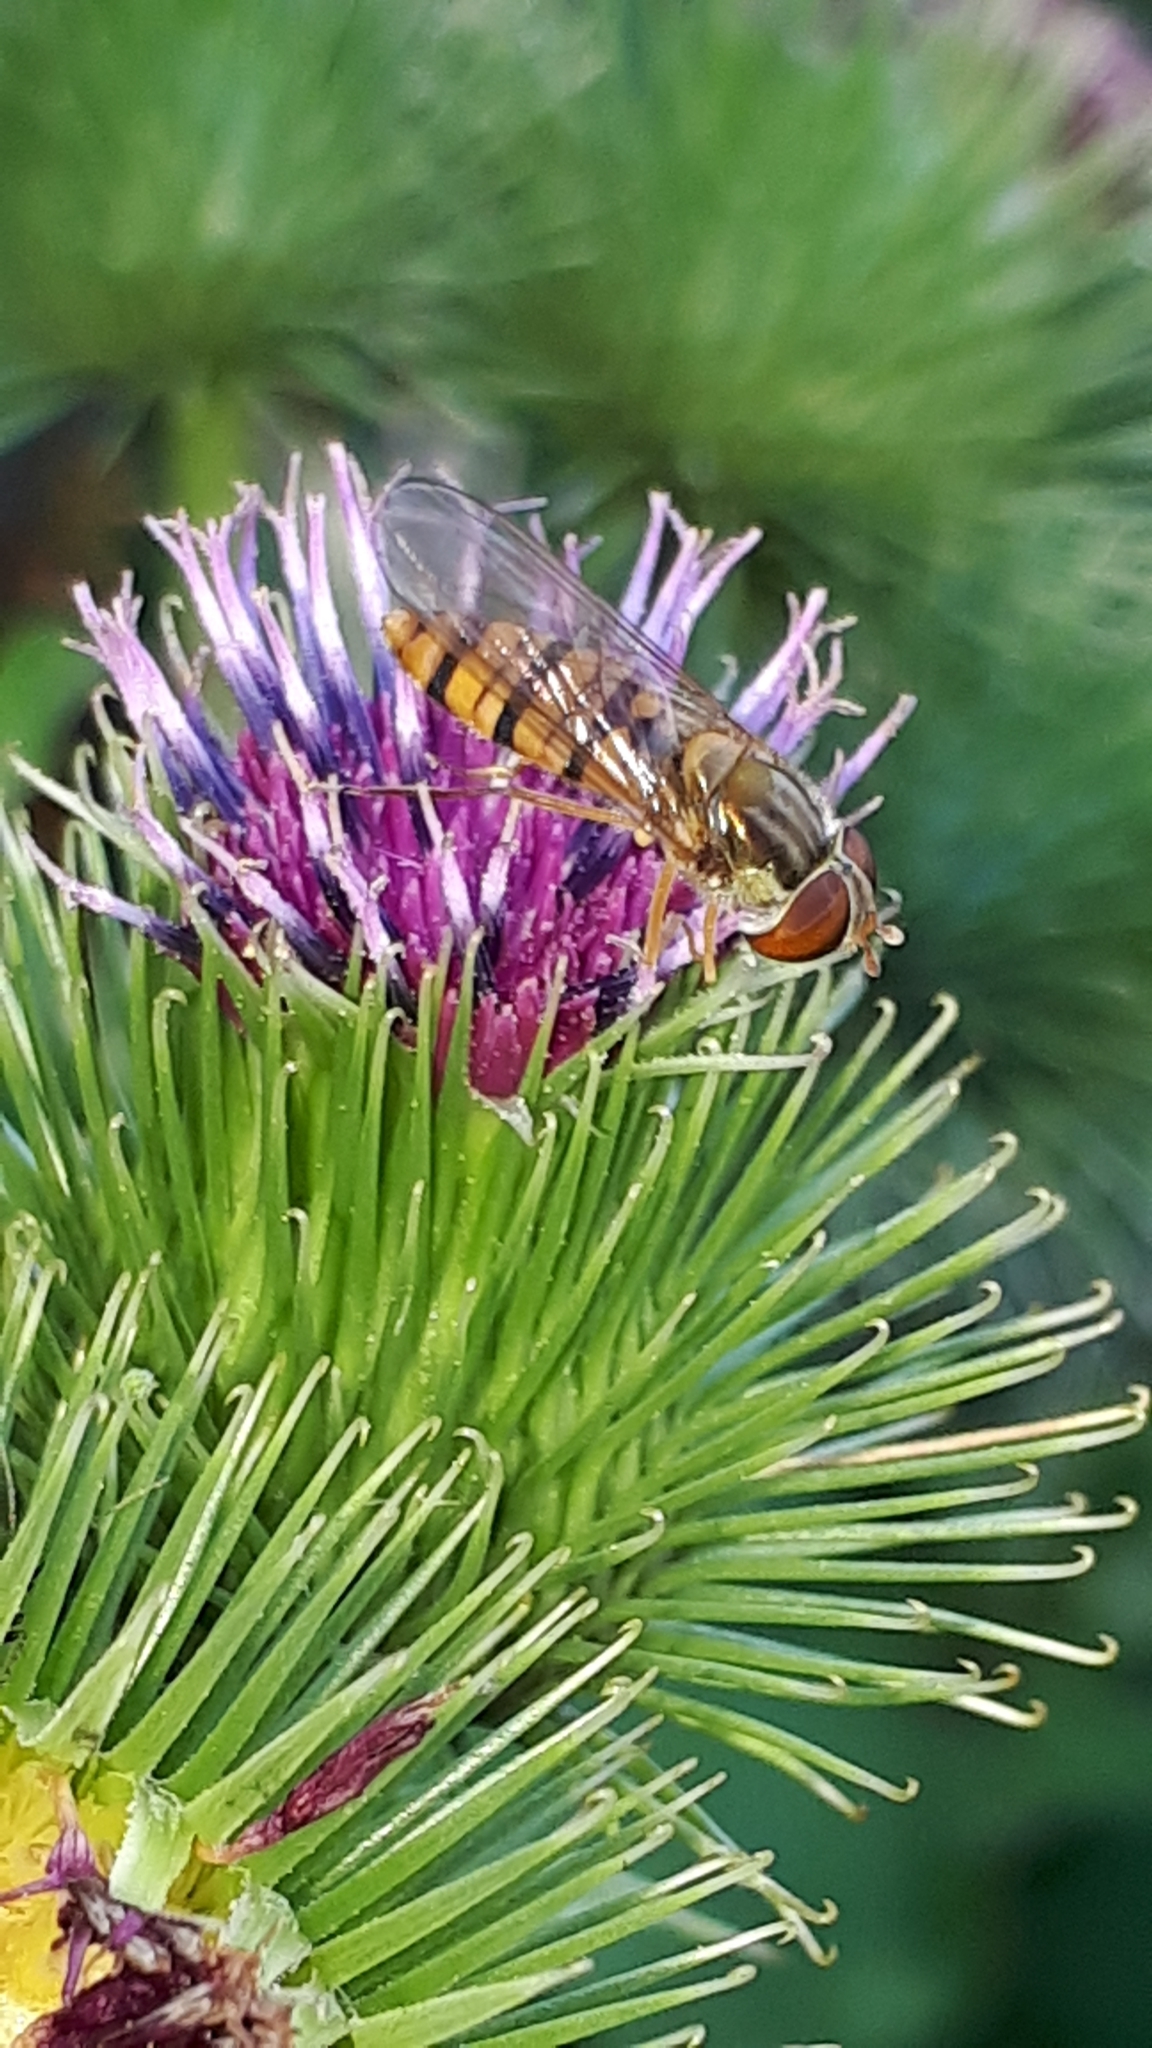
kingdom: Animalia
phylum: Arthropoda
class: Insecta
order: Diptera
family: Syrphidae
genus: Episyrphus
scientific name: Episyrphus balteatus
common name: Marmalade hoverfly
